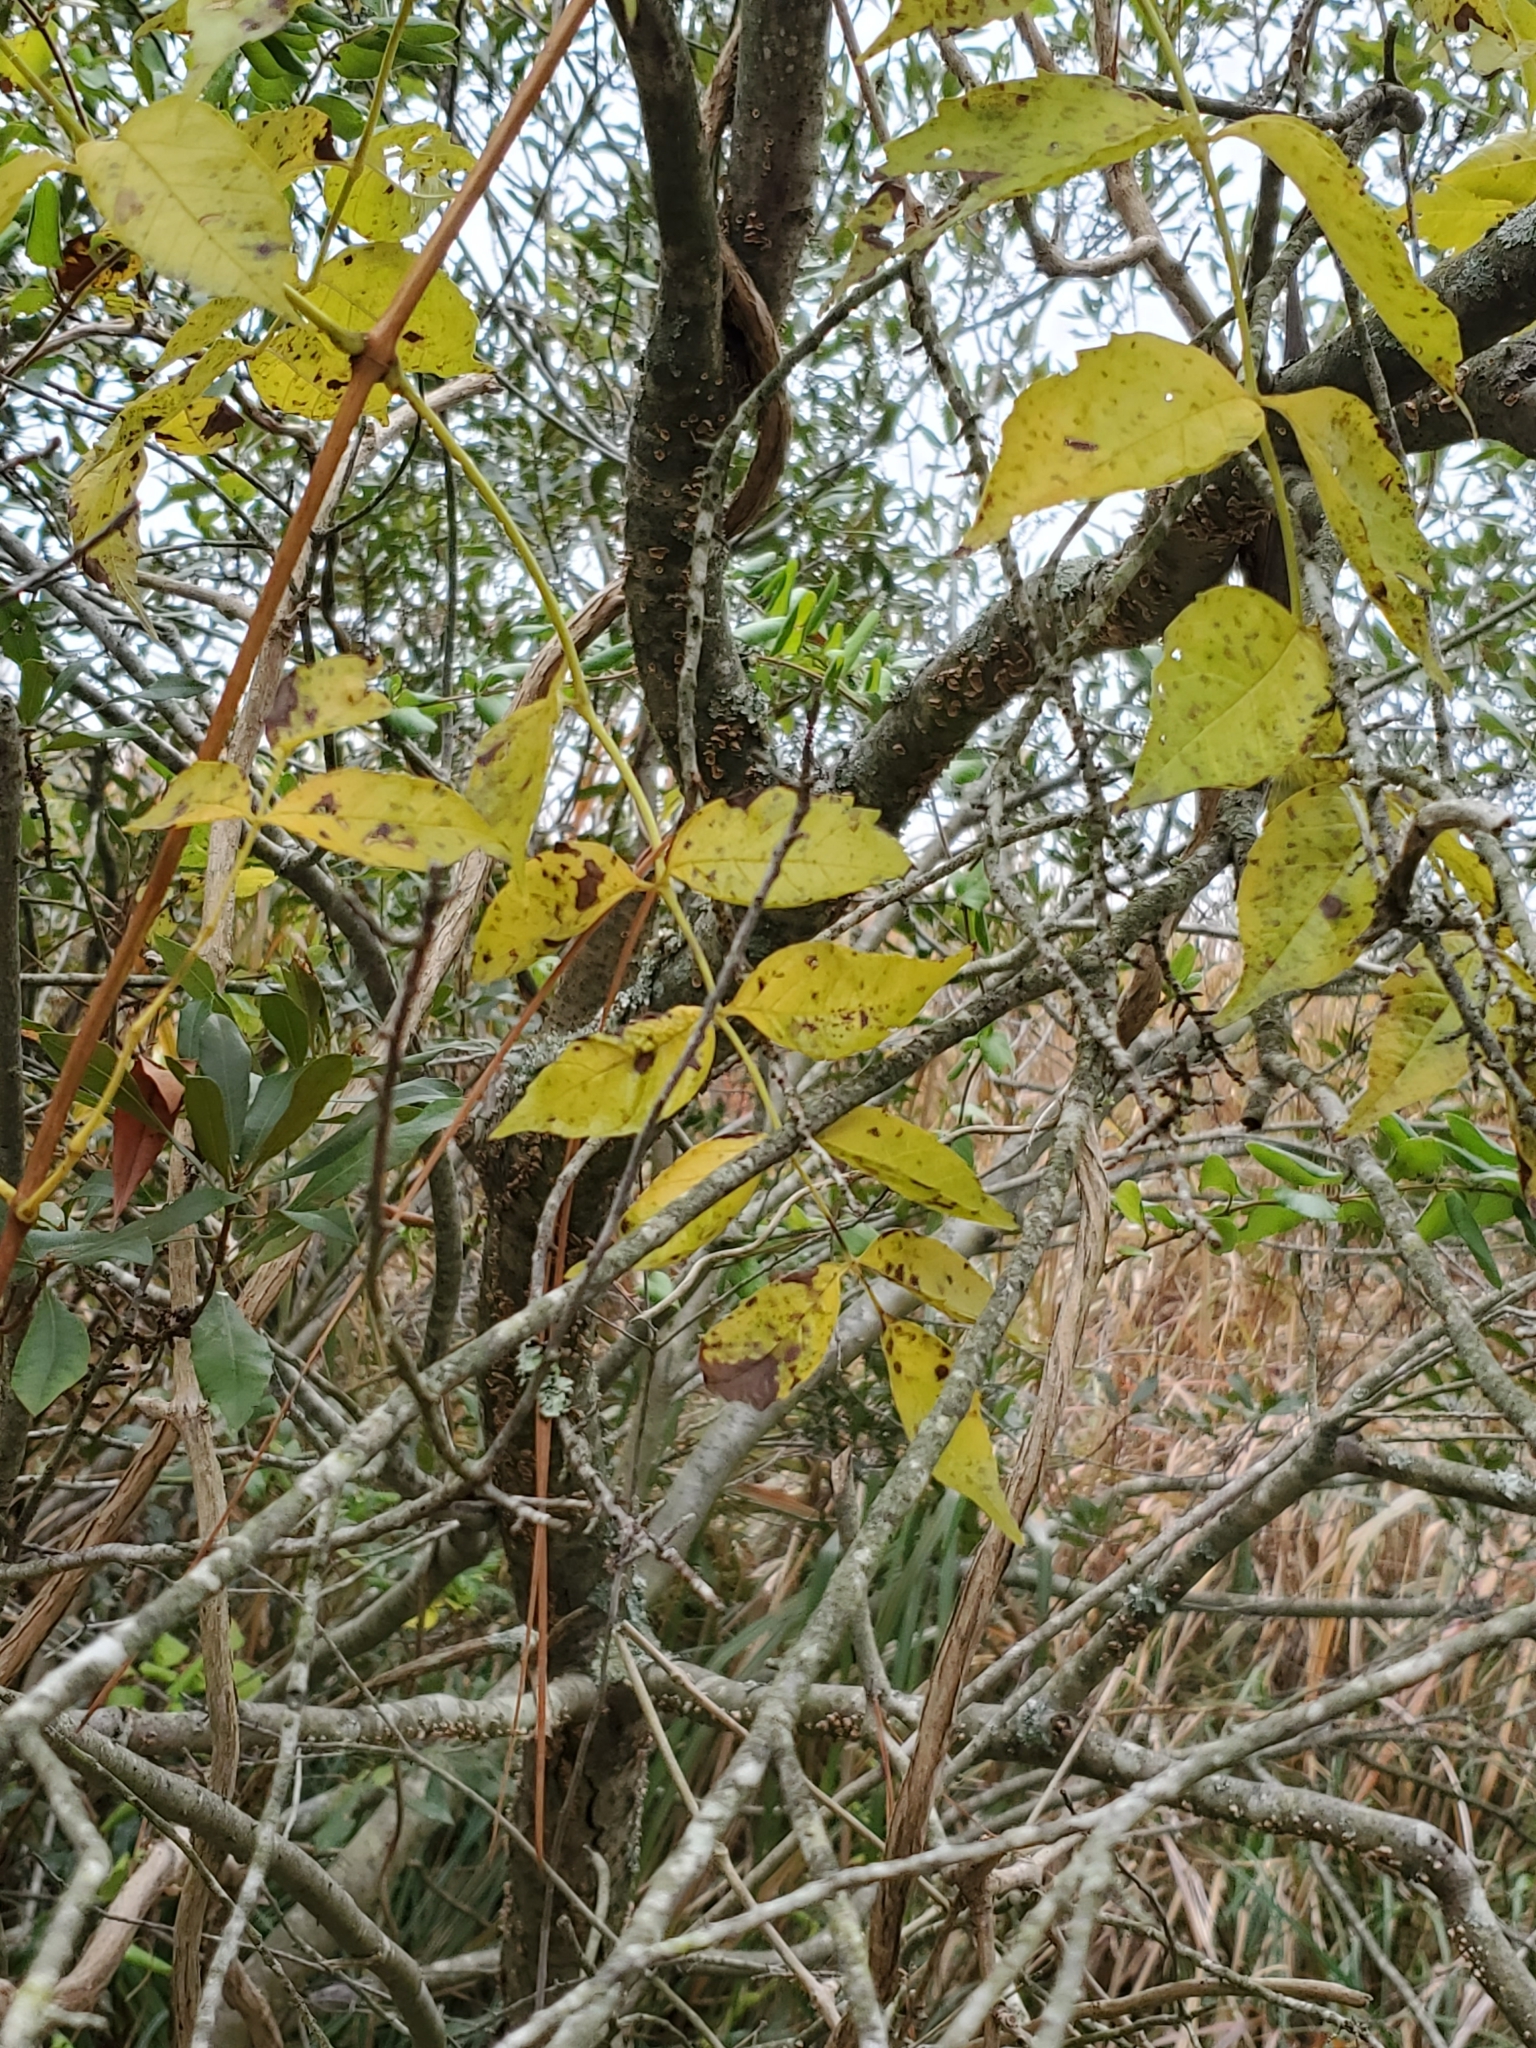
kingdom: Plantae
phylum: Tracheophyta
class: Magnoliopsida
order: Lamiales
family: Bignoniaceae
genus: Campsis
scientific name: Campsis radicans
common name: Trumpet-creeper
